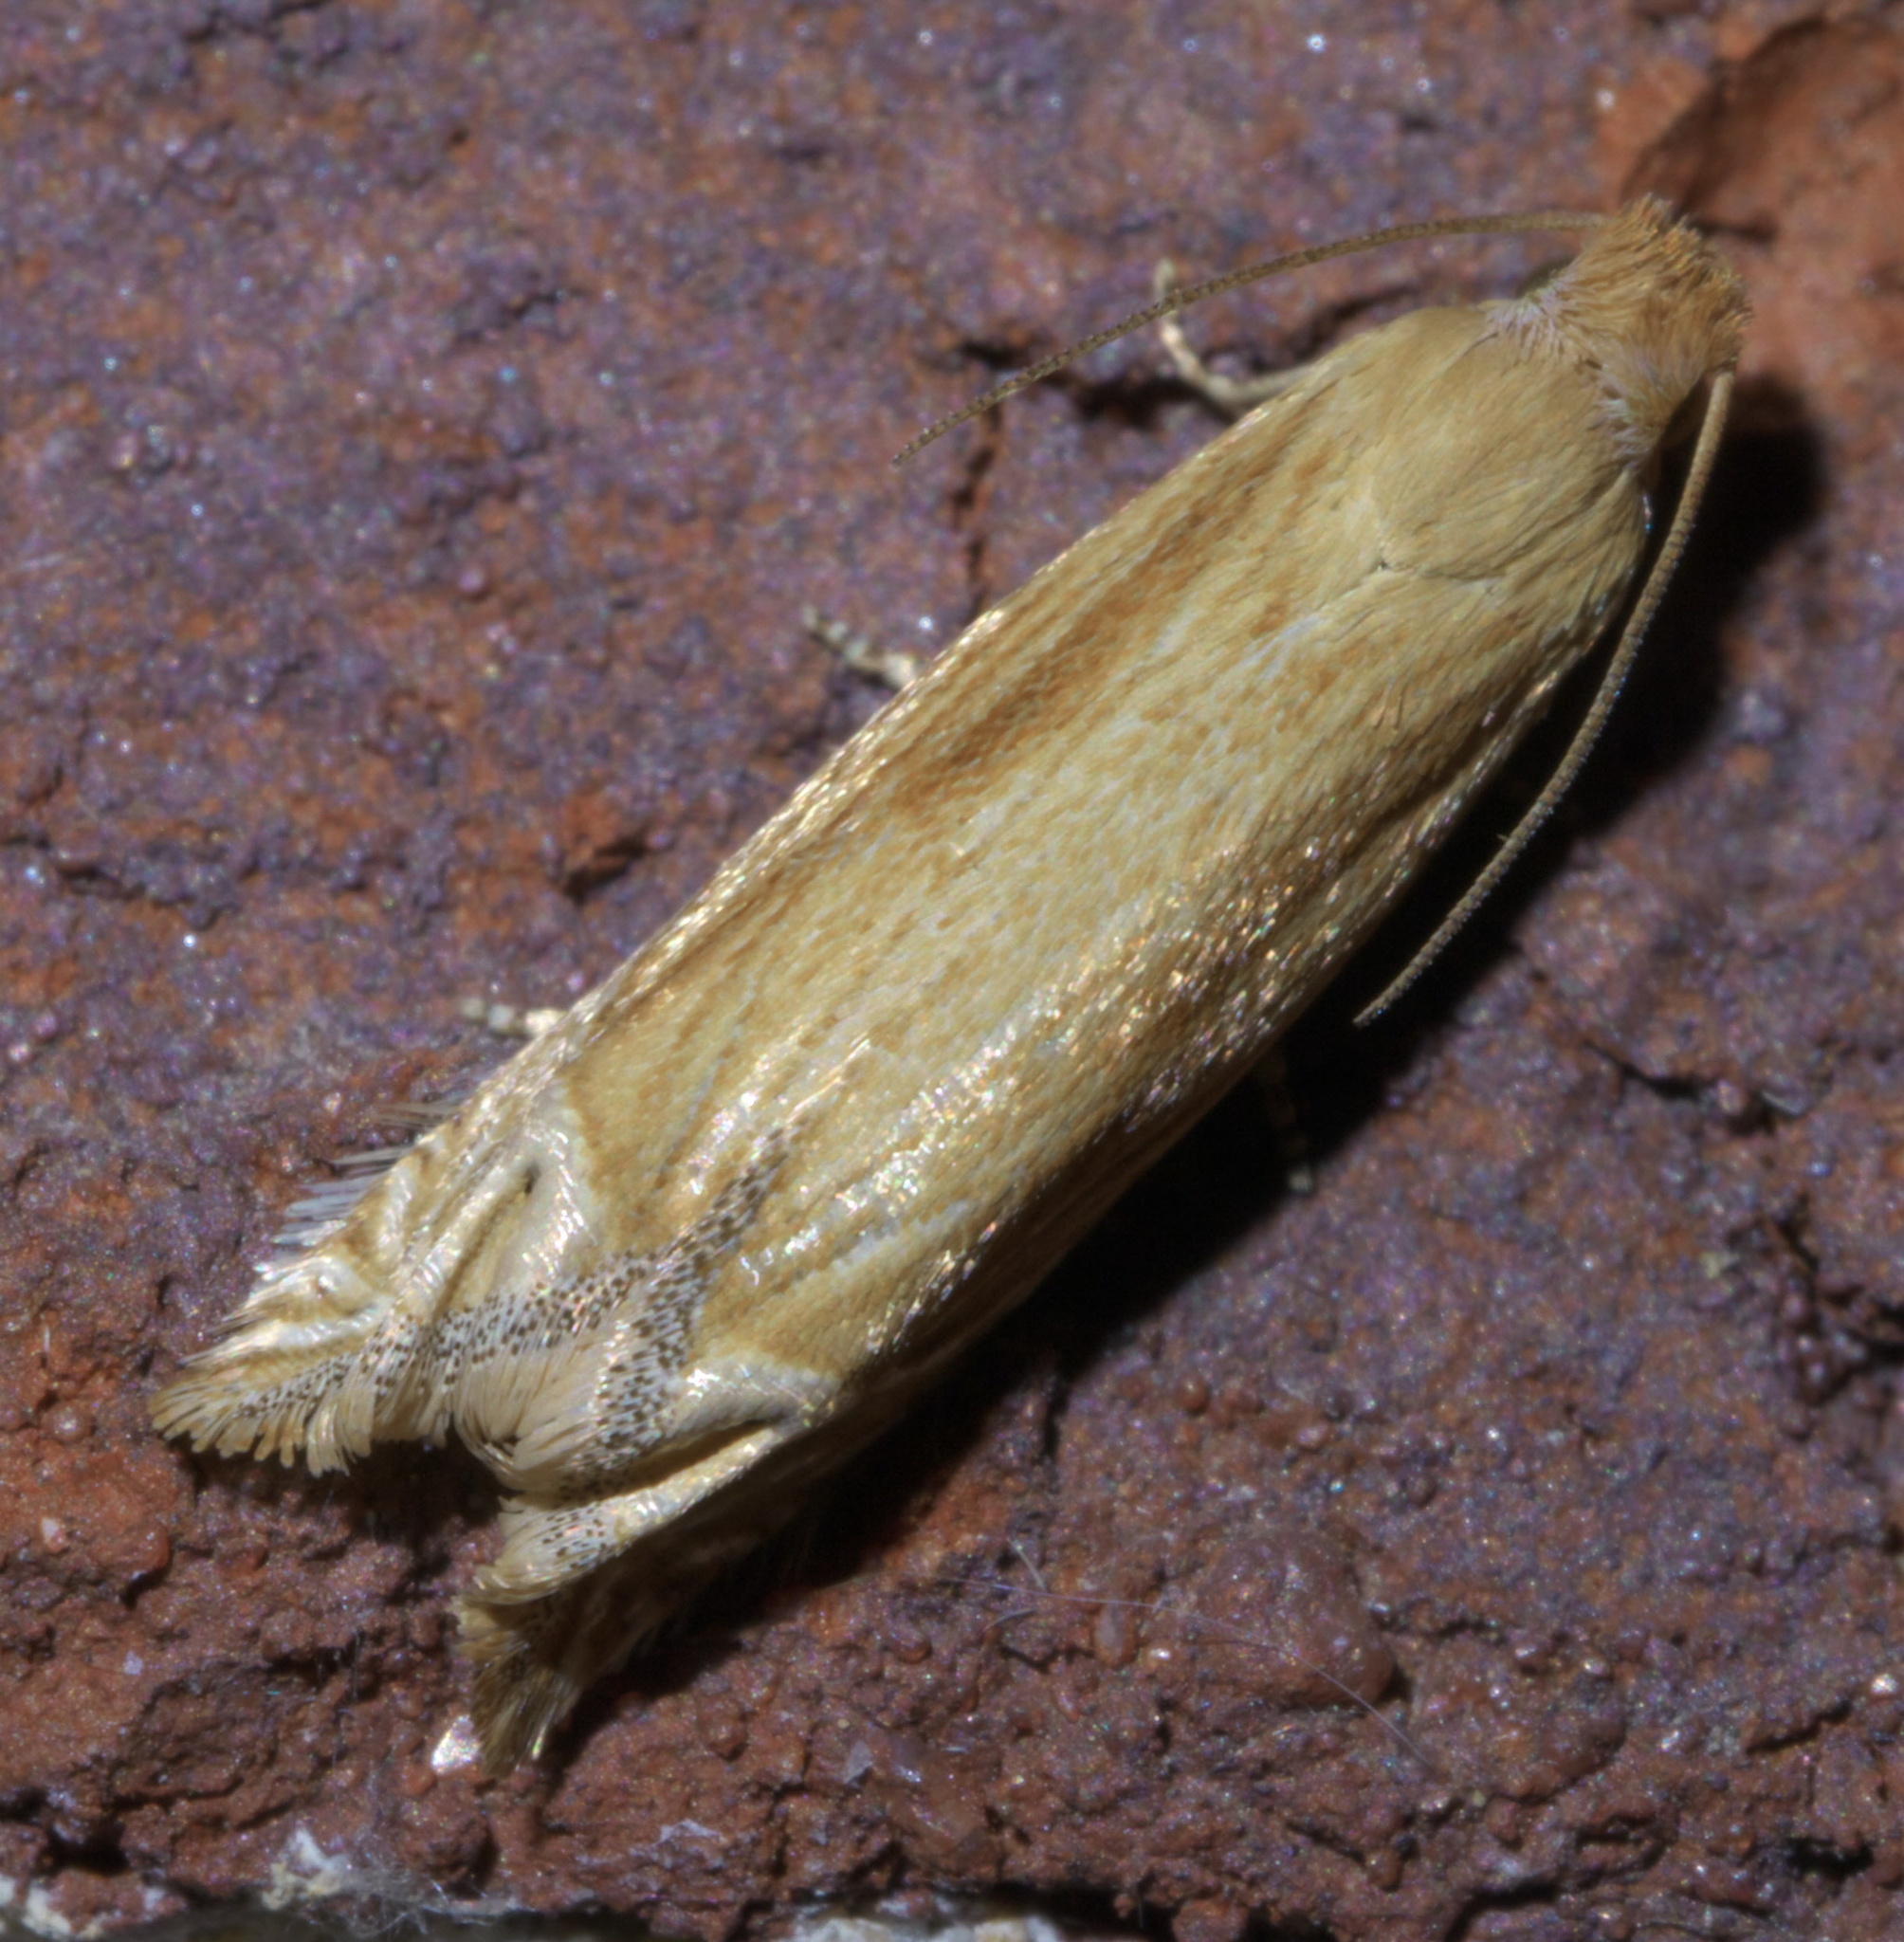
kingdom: Animalia
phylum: Arthropoda
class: Insecta
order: Lepidoptera
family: Tortricidae
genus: Pelochrista
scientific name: Pelochrista cataclystiana
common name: Goldenrod pelochrista moth
